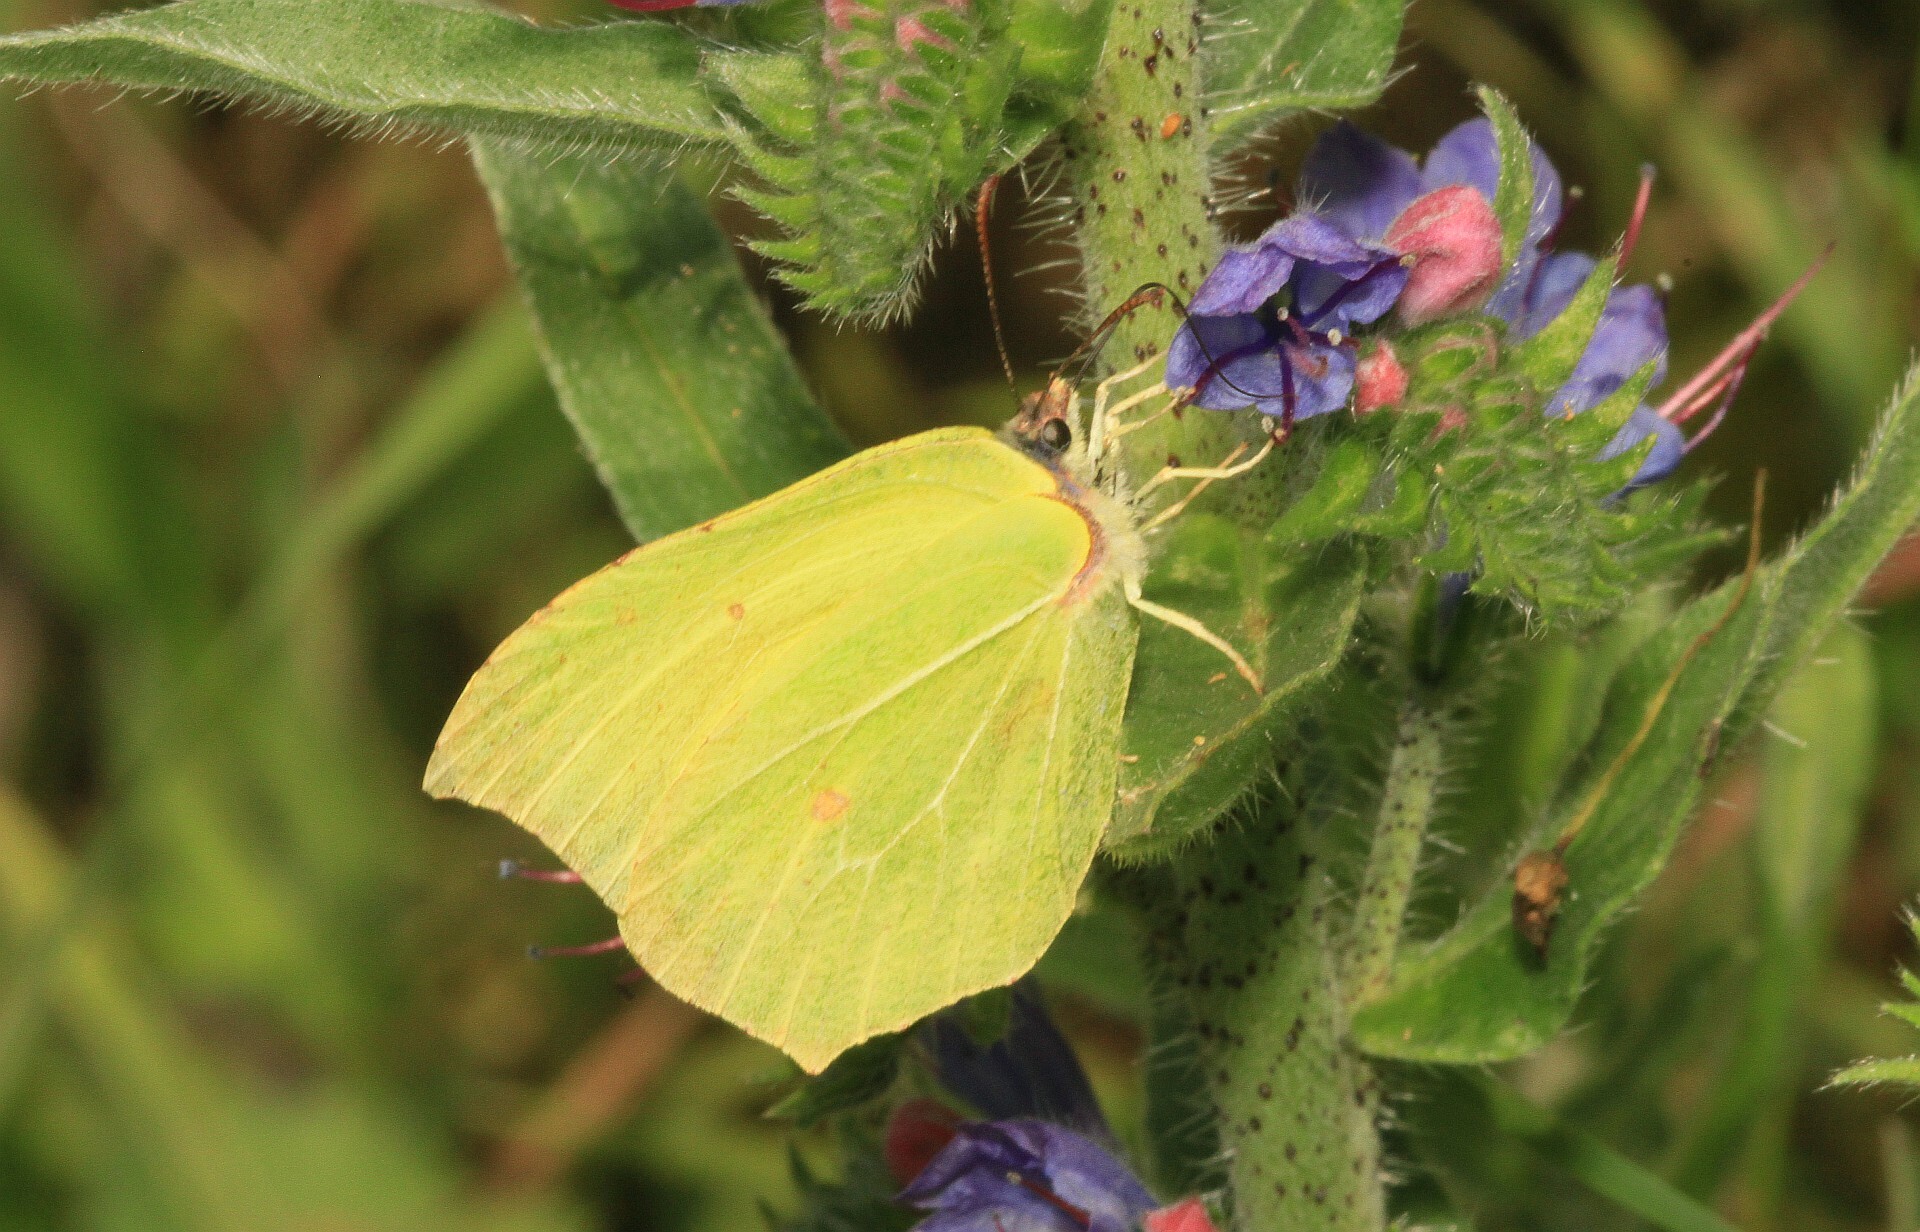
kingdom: Animalia
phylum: Arthropoda
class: Insecta
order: Lepidoptera
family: Pieridae
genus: Gonepteryx
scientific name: Gonepteryx rhamni
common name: Brimstone
